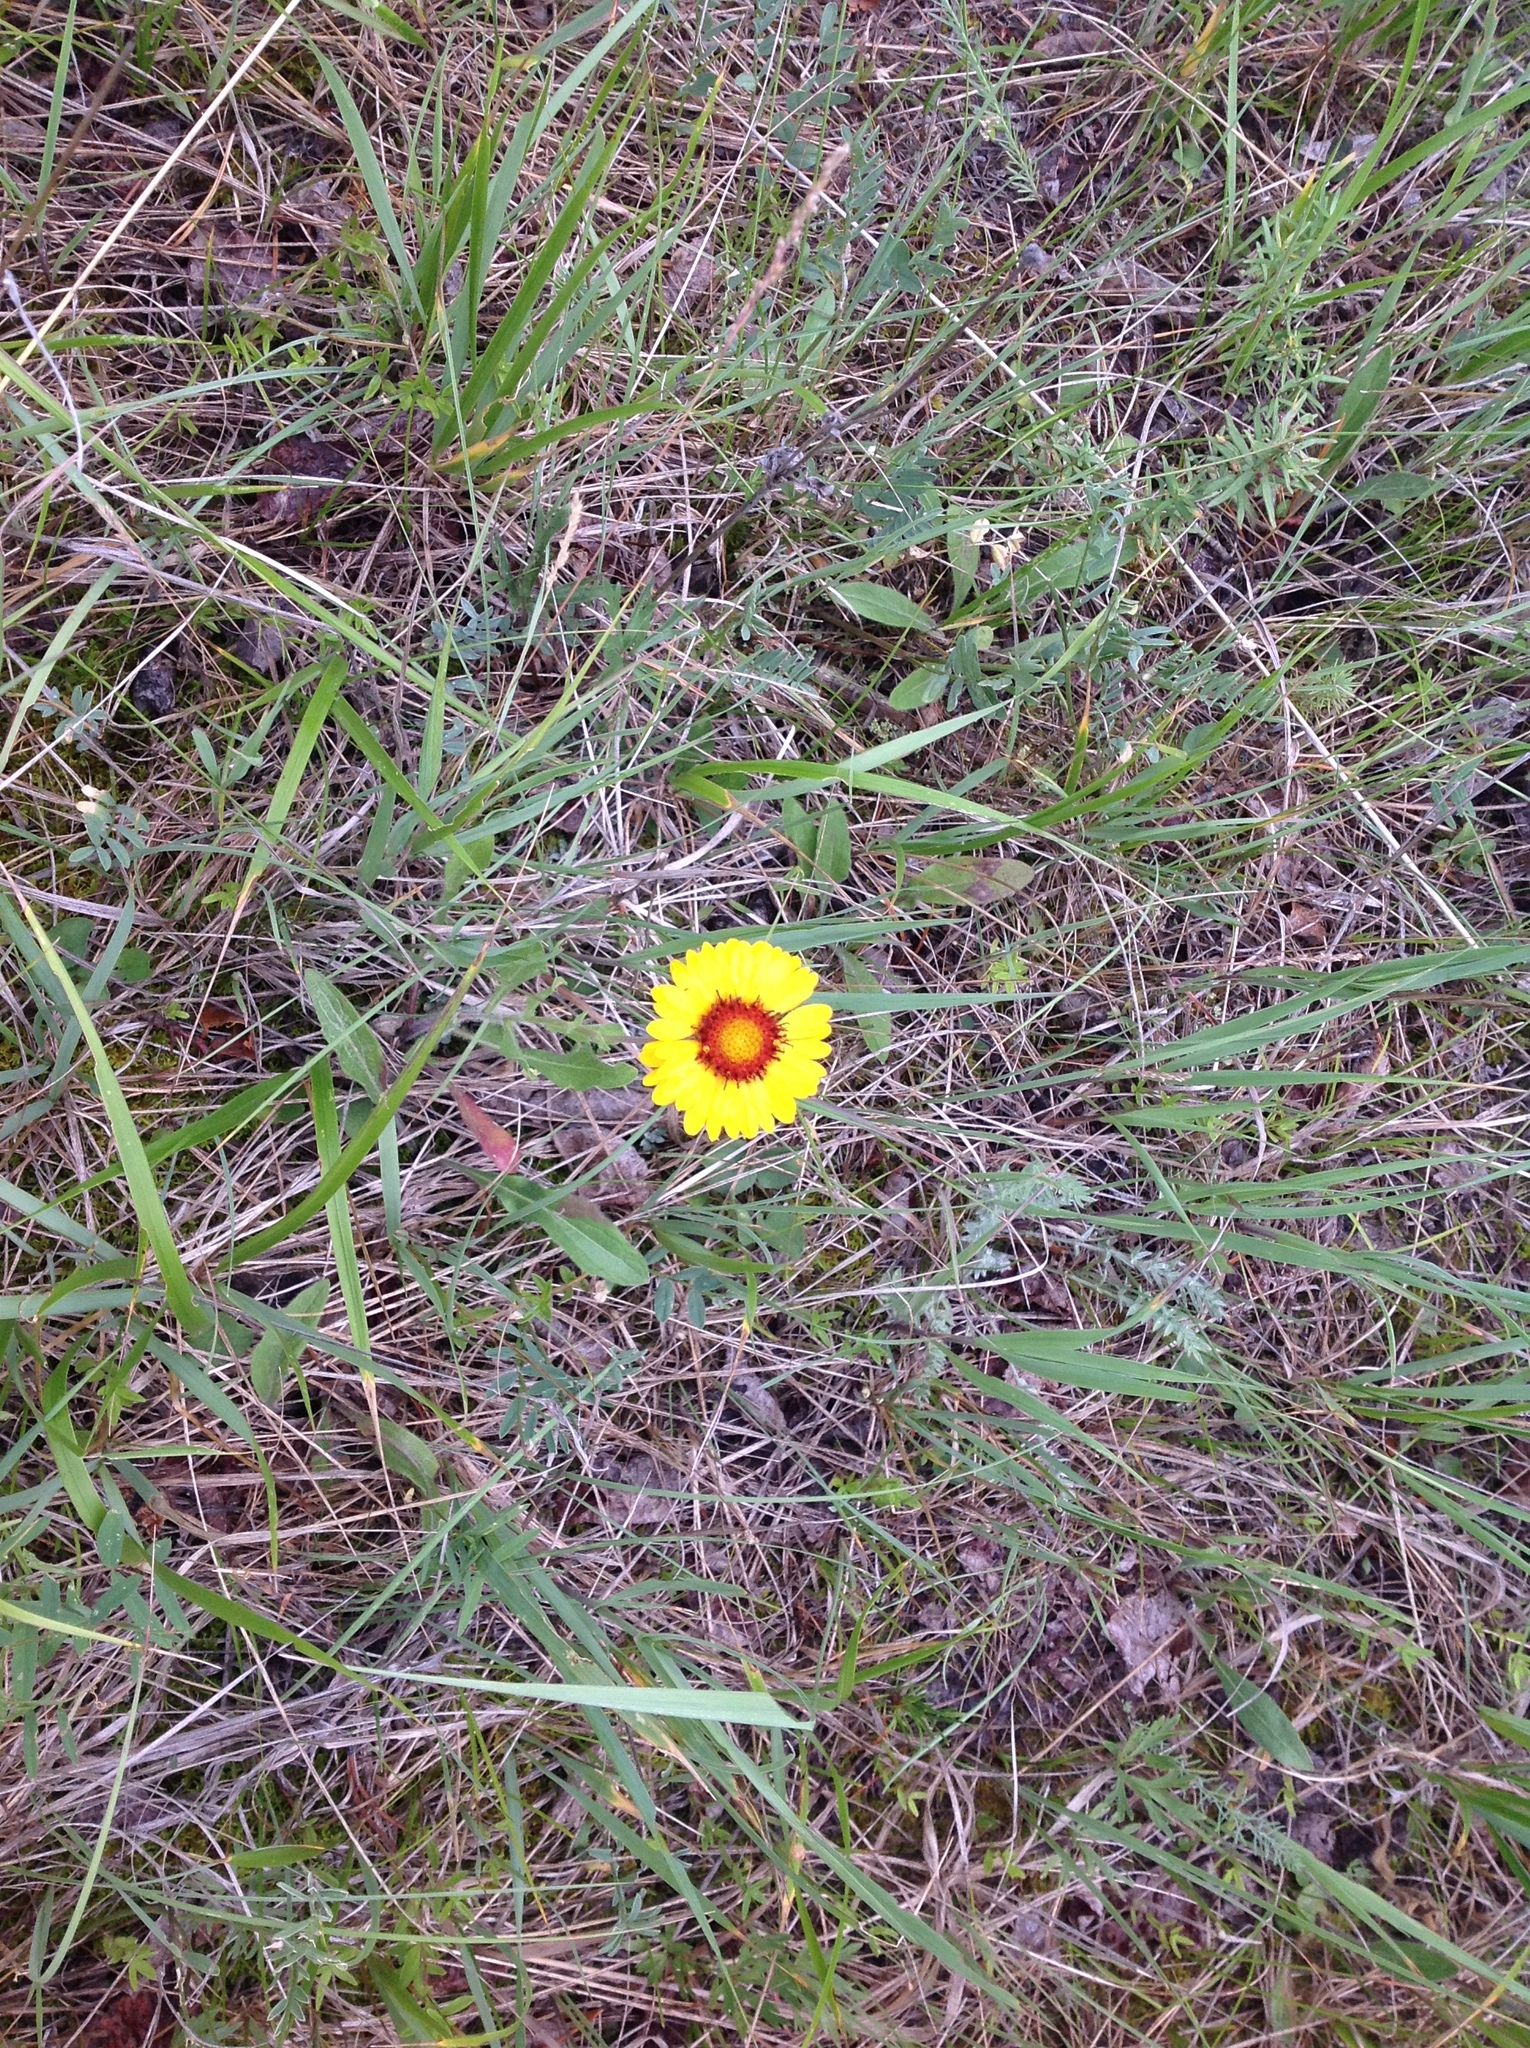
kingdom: Plantae
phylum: Tracheophyta
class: Magnoliopsida
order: Asterales
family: Asteraceae
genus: Gaillardia
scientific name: Gaillardia aristata
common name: Blanket-flower
